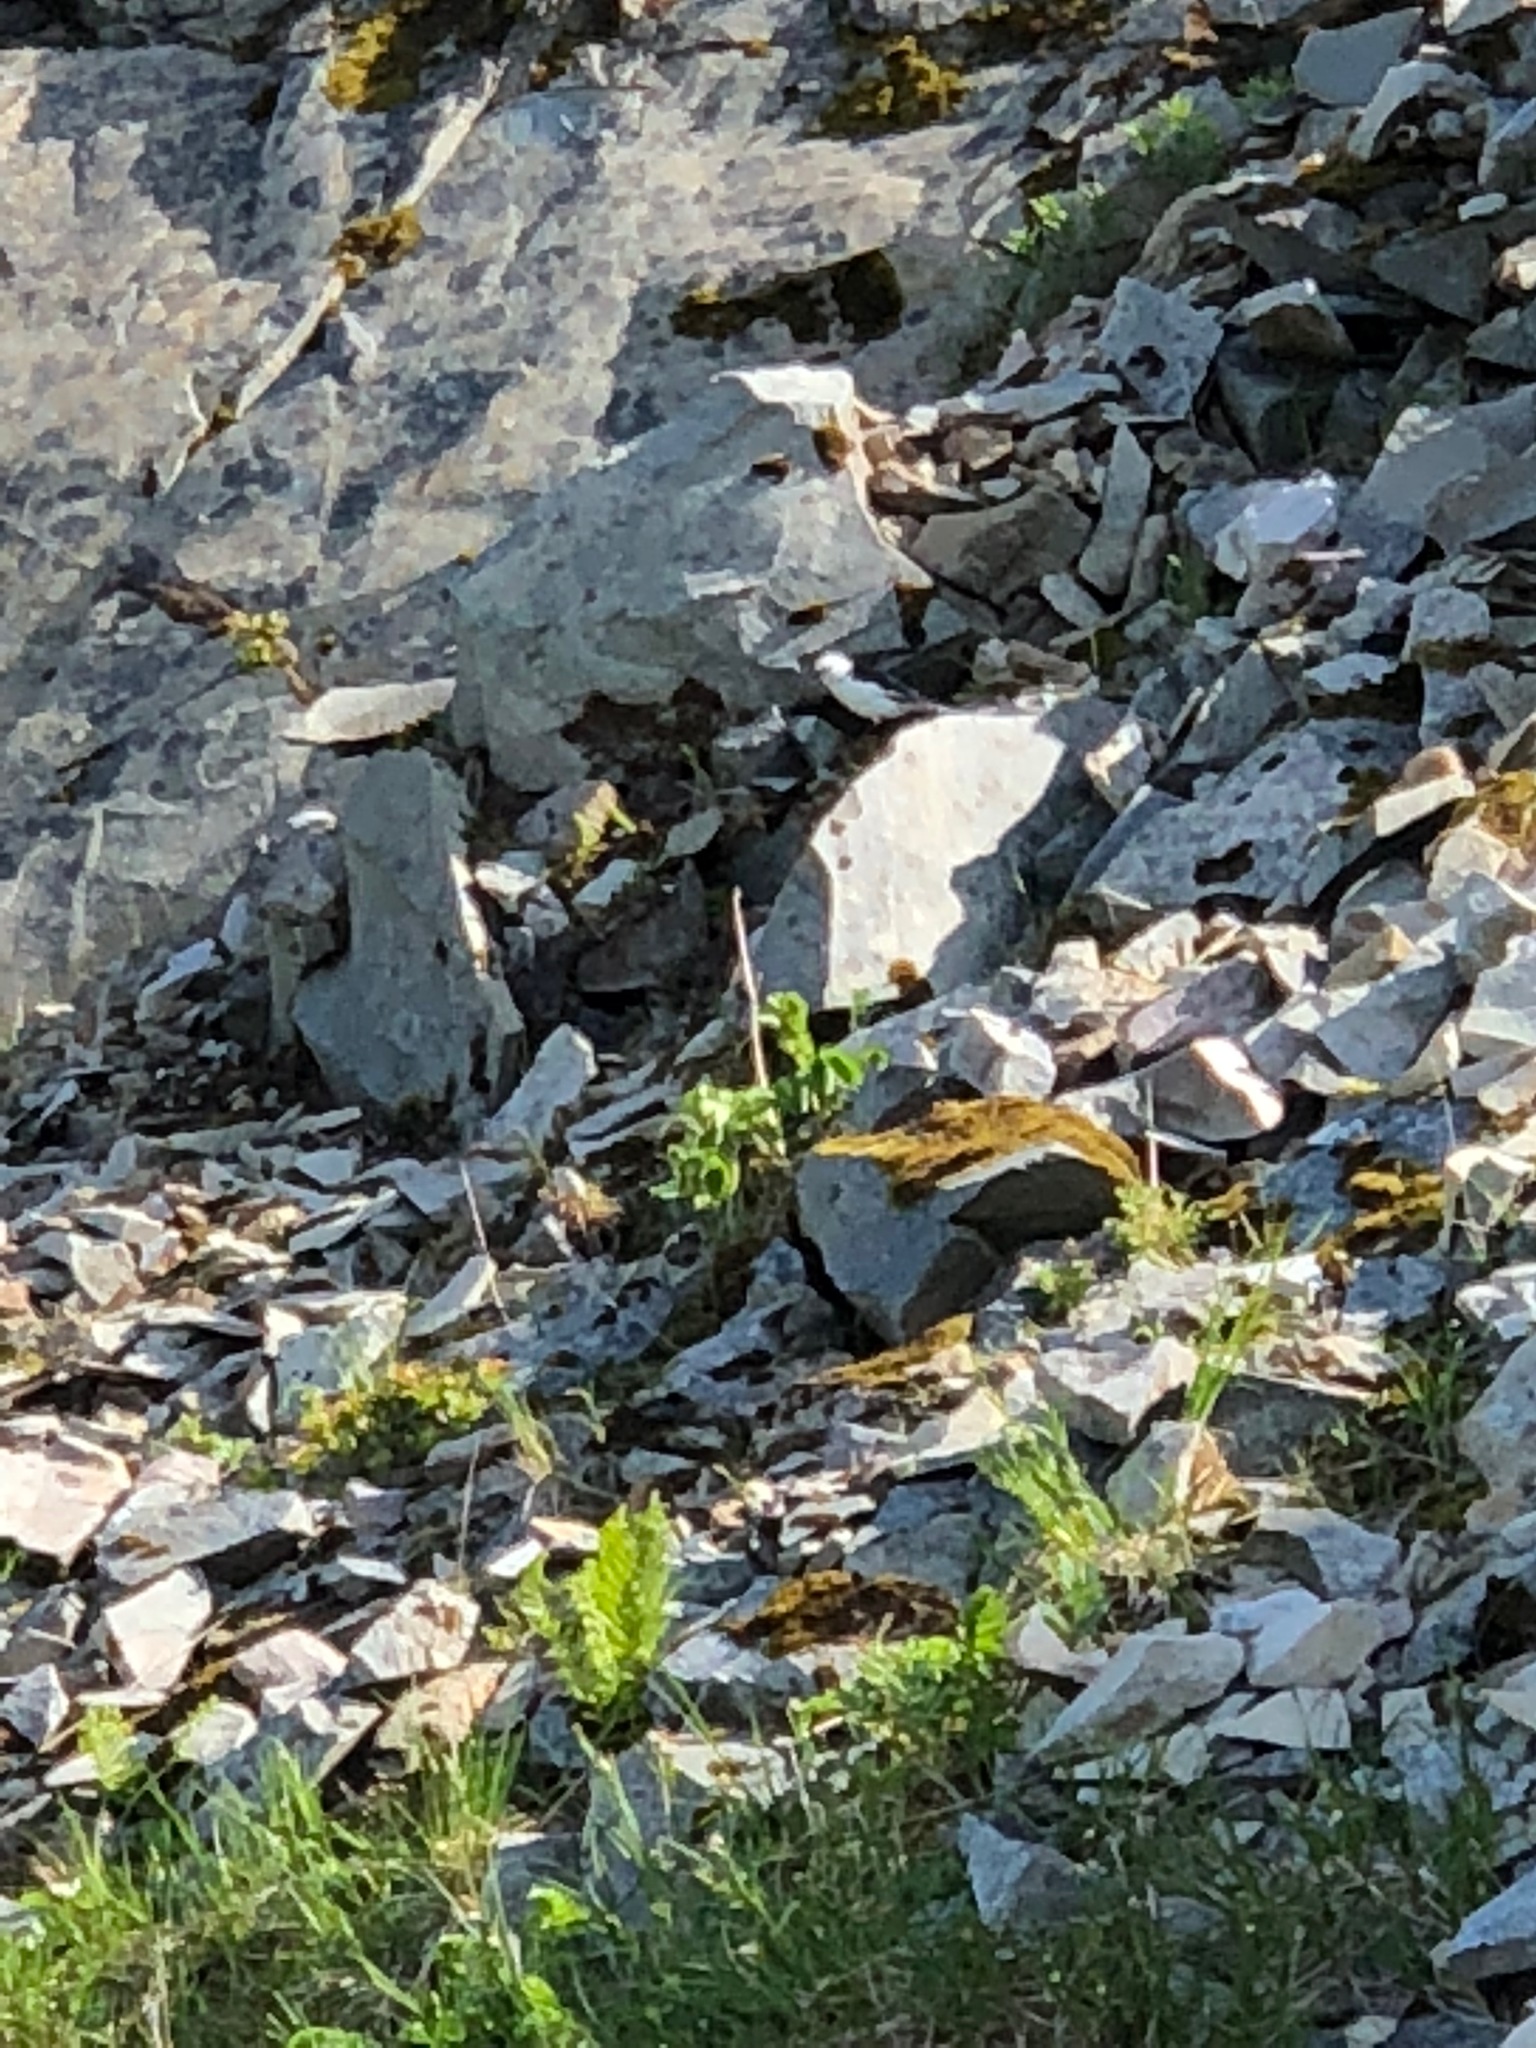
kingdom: Animalia
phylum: Chordata
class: Aves
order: Passeriformes
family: Calcariidae
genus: Plectrophenax
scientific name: Plectrophenax nivalis
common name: Snow bunting
